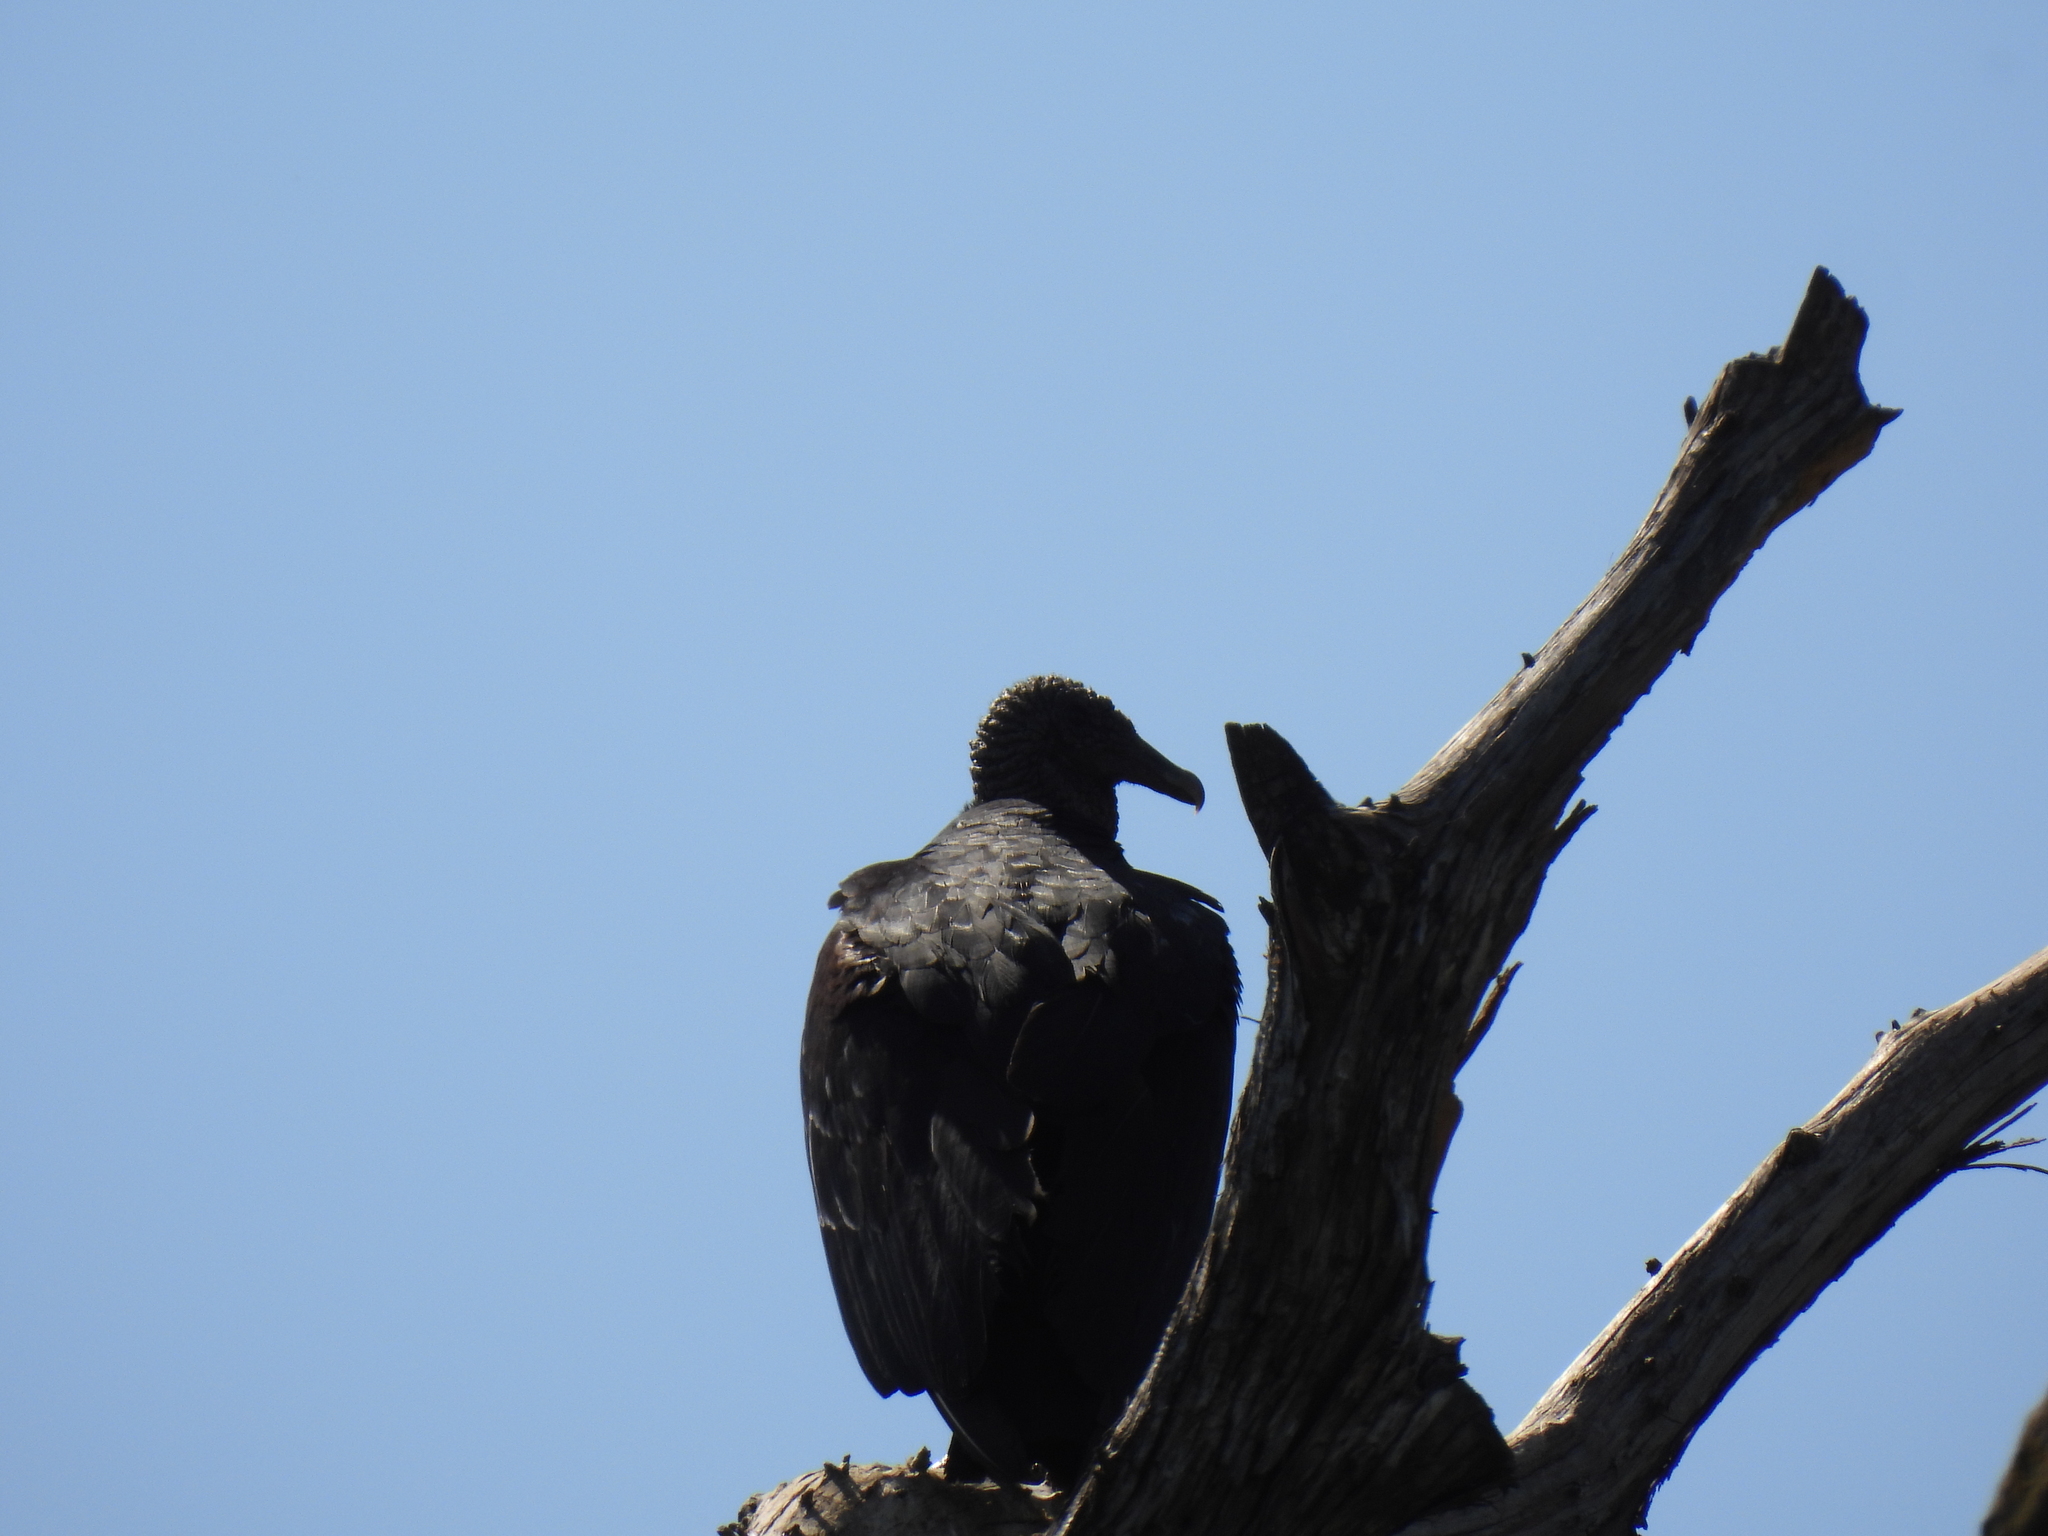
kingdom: Animalia
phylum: Chordata
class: Aves
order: Accipitriformes
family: Cathartidae
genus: Coragyps
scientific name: Coragyps atratus
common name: Black vulture
